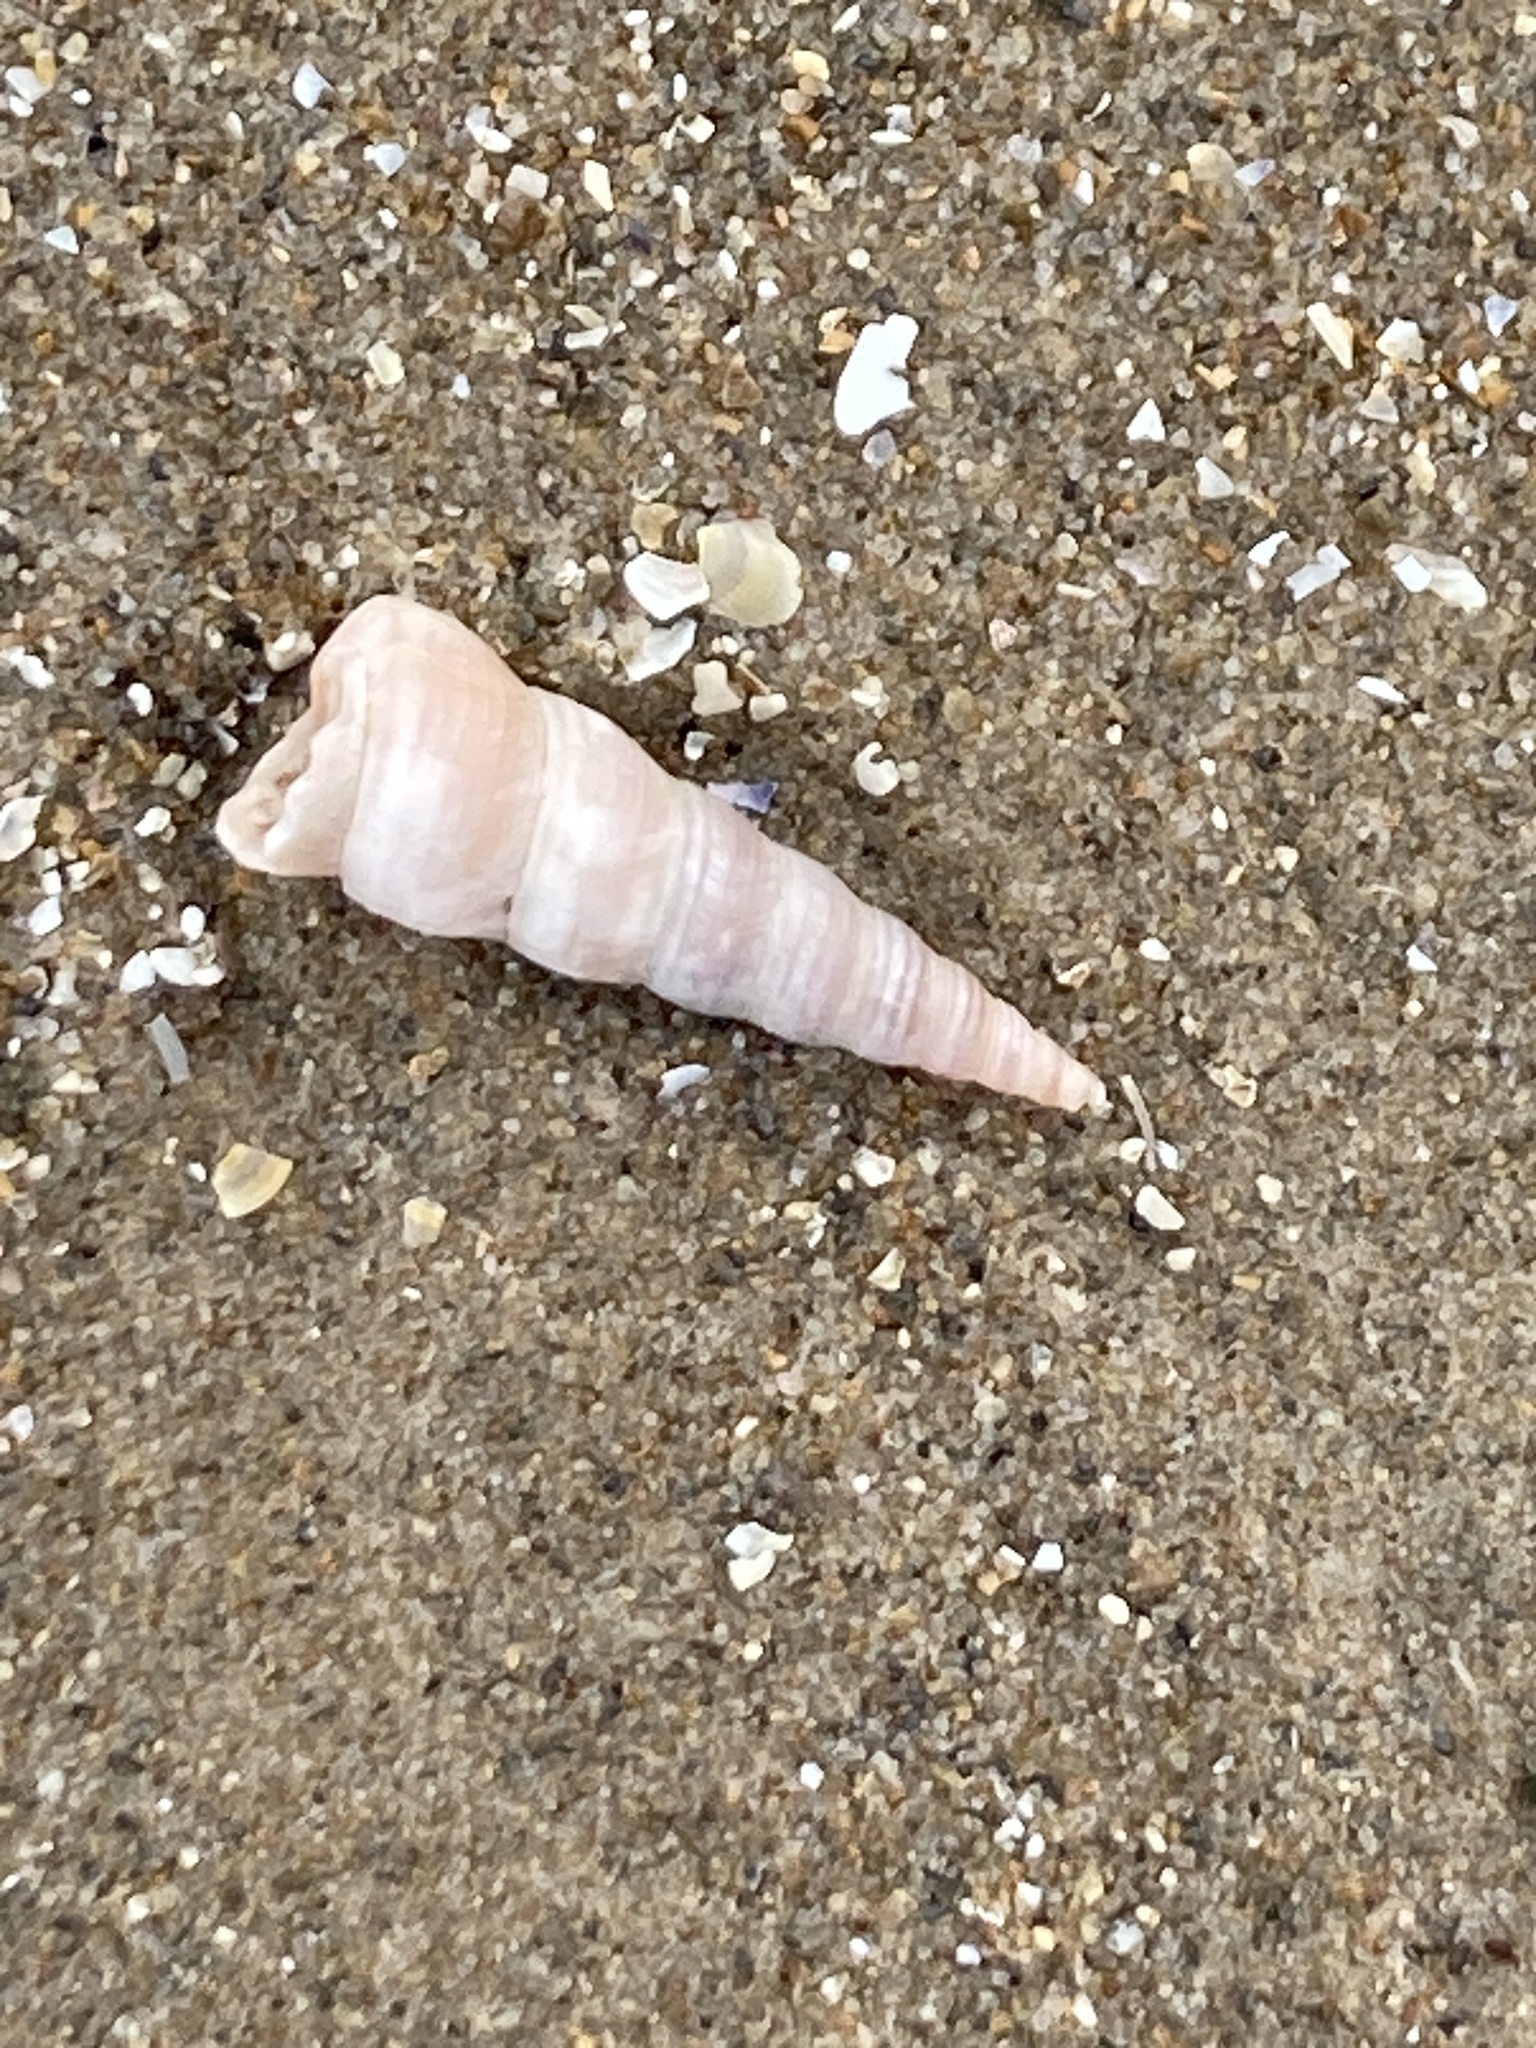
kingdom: Animalia
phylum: Mollusca
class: Gastropoda
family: Turritellidae
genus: Turritellinella
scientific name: Turritellinella tricarinata
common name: Auger shell
